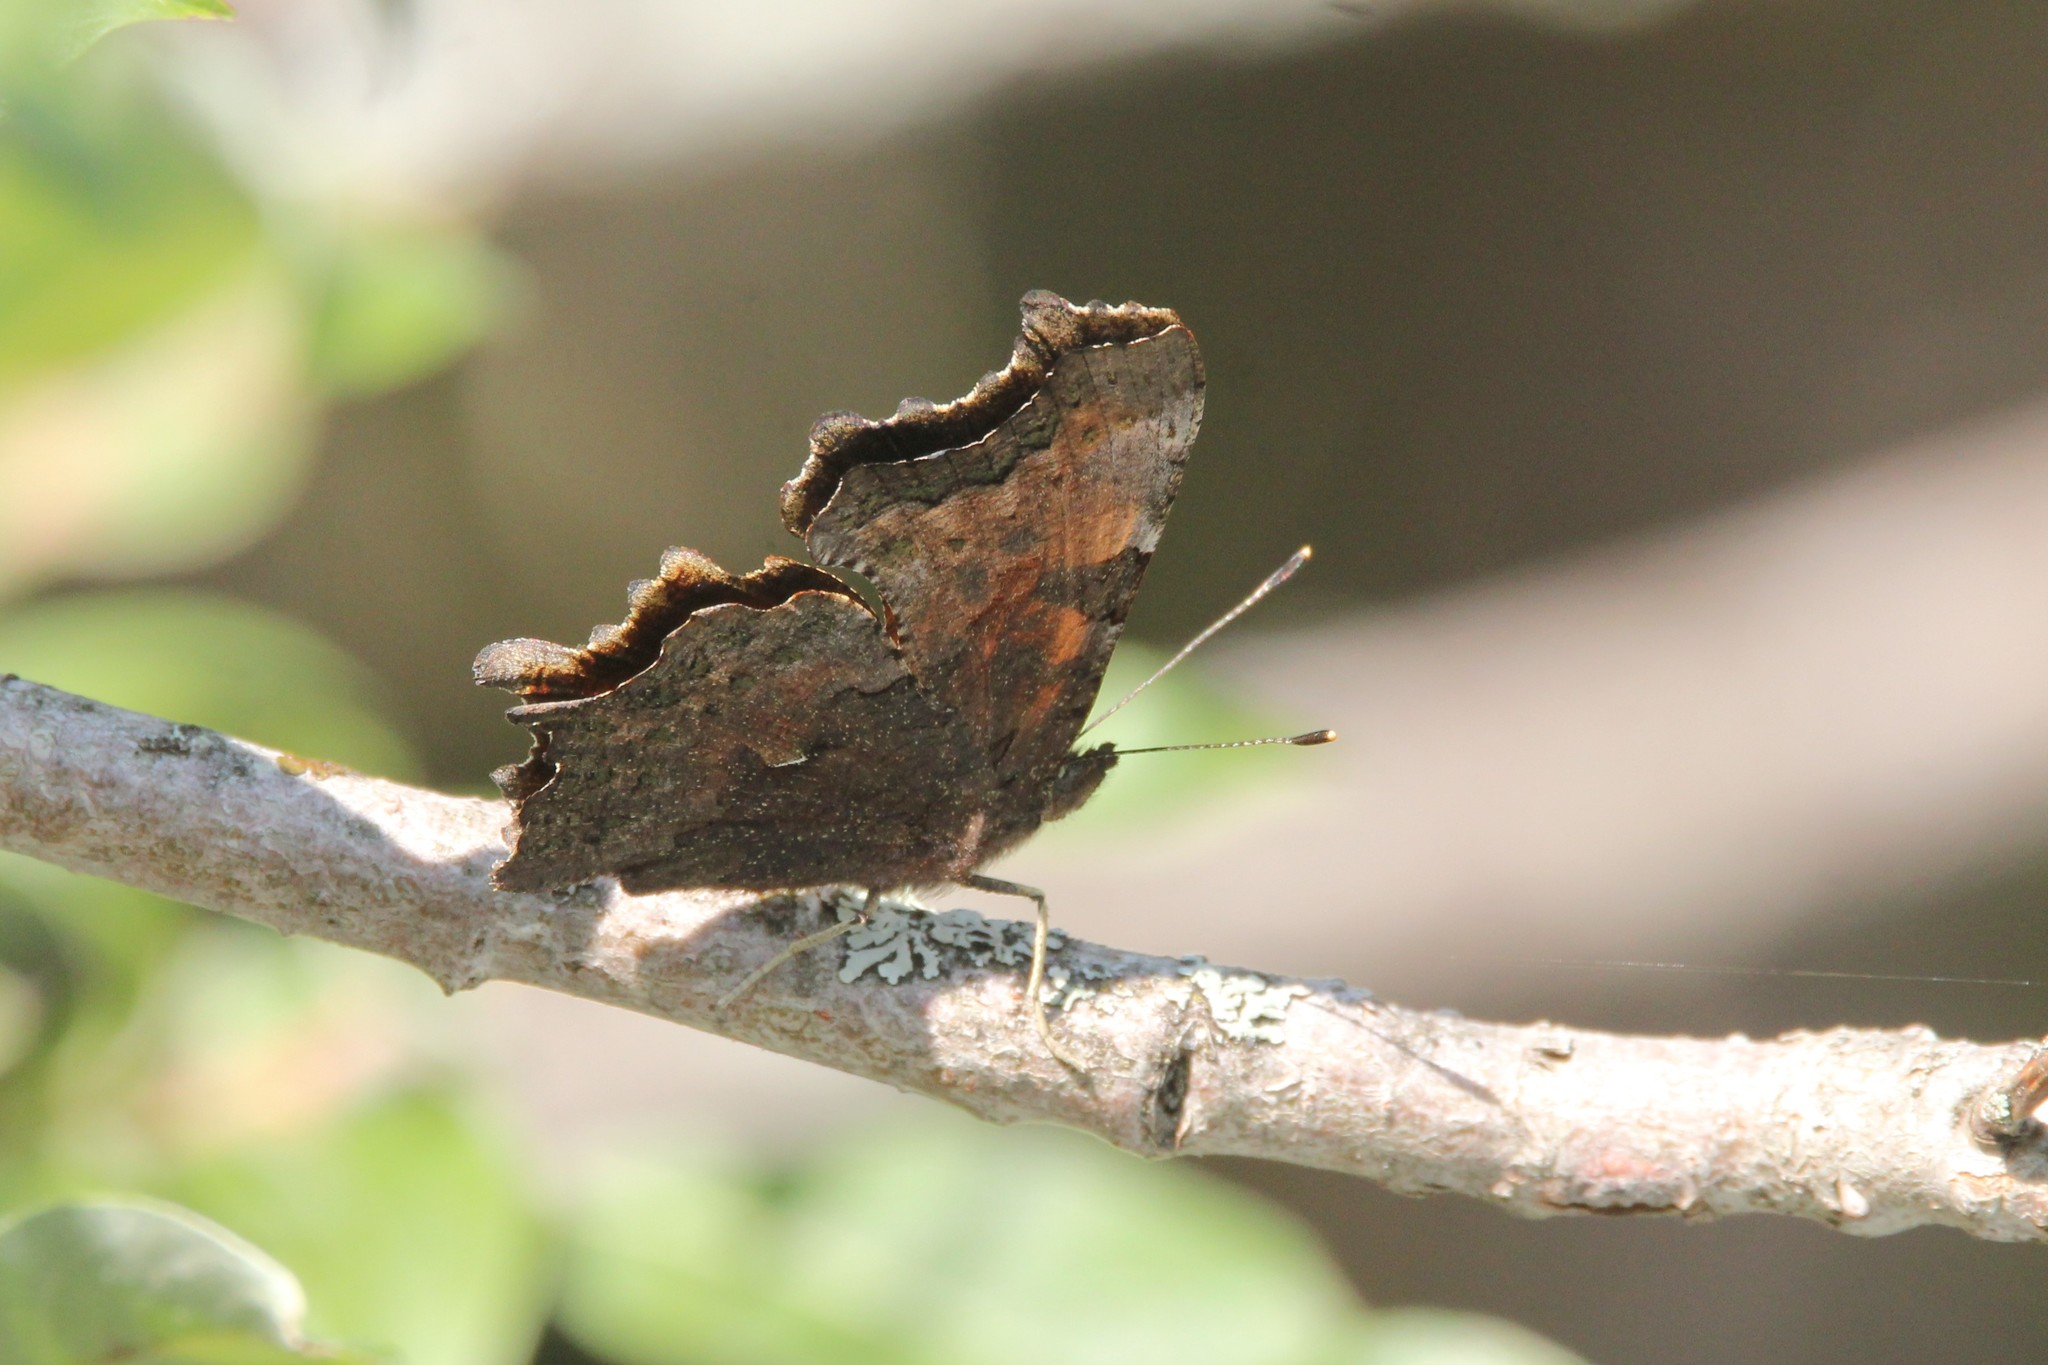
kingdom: Animalia
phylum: Arthropoda
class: Insecta
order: Lepidoptera
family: Nymphalidae
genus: Polygonia
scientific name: Polygonia faunus
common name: Green comma
